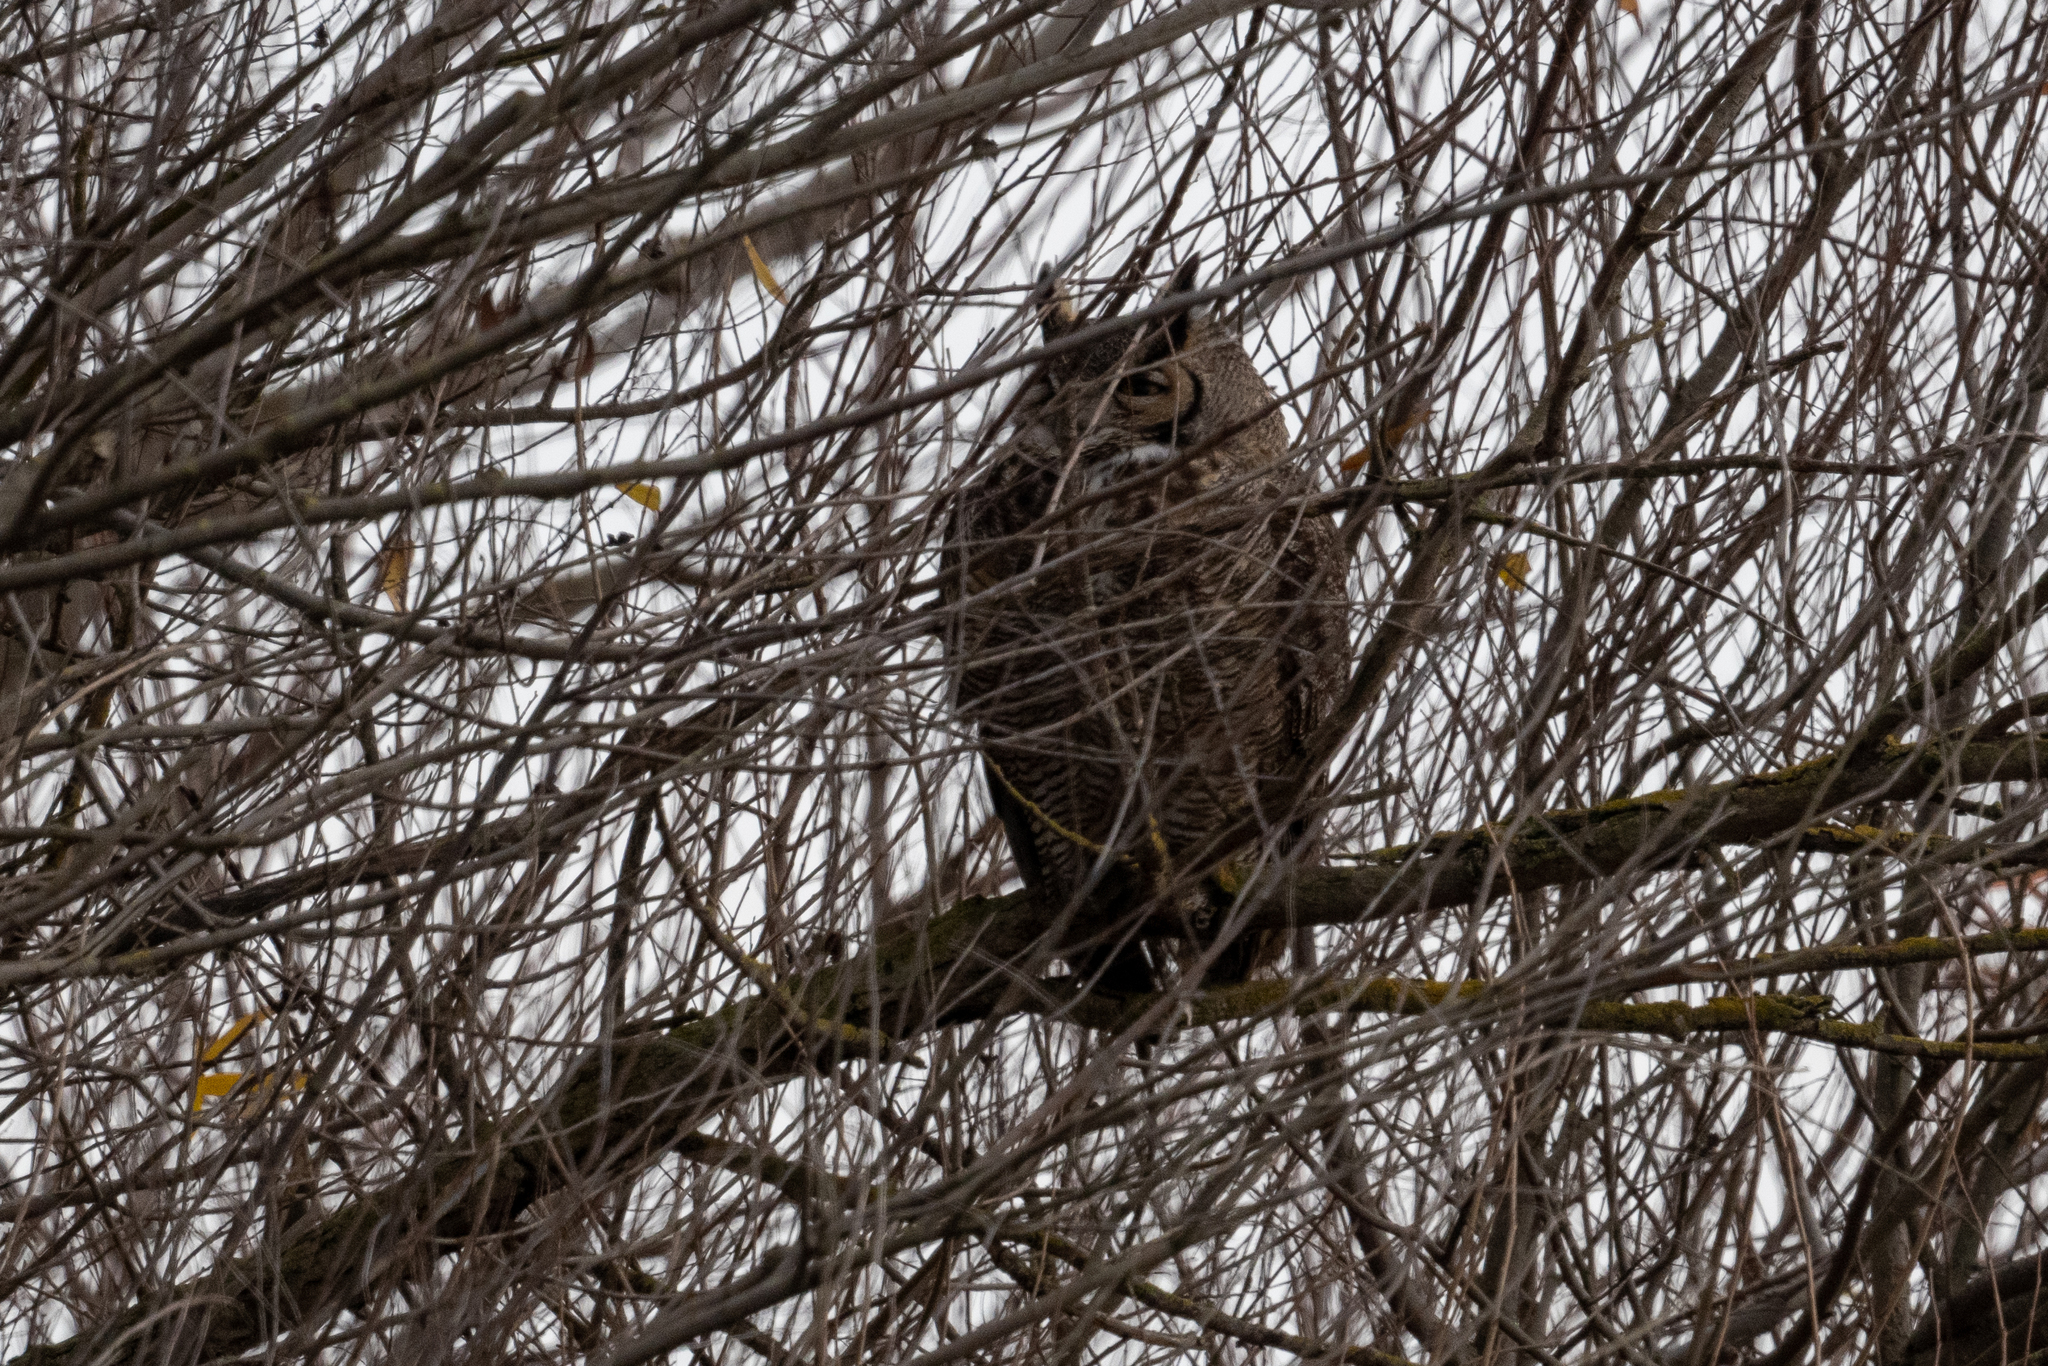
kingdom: Animalia
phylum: Chordata
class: Aves
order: Strigiformes
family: Strigidae
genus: Bubo
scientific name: Bubo virginianus
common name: Great horned owl
